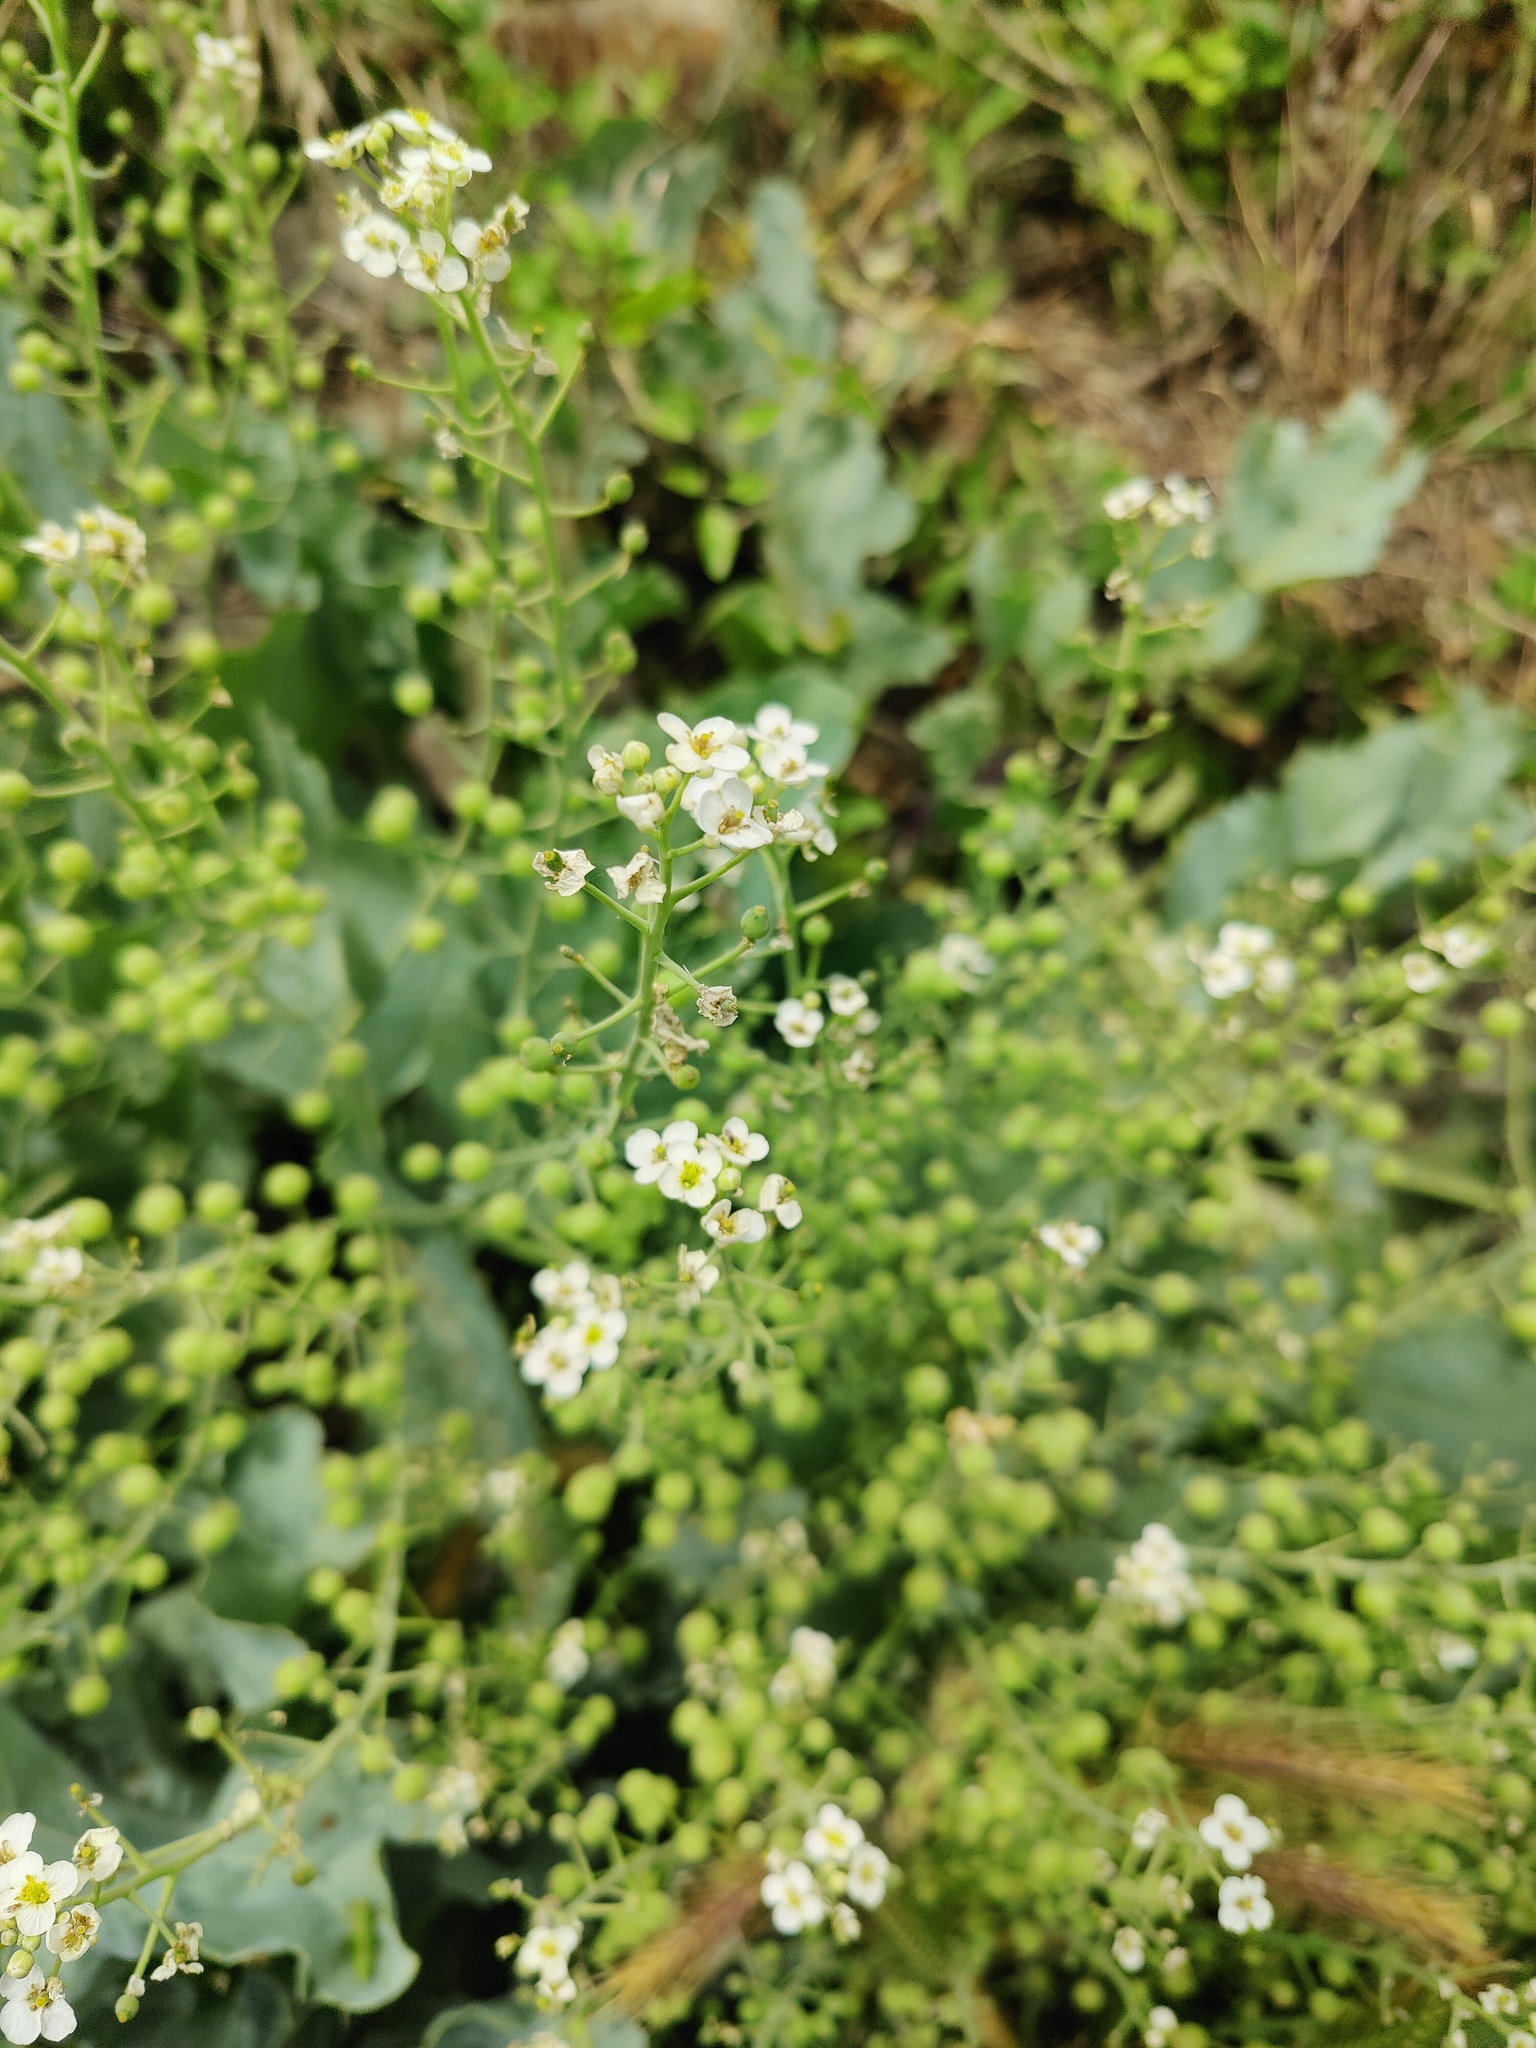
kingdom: Plantae
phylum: Tracheophyta
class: Magnoliopsida
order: Brassicales
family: Brassicaceae
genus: Crambe
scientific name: Crambe maritima
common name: Sea-kale
